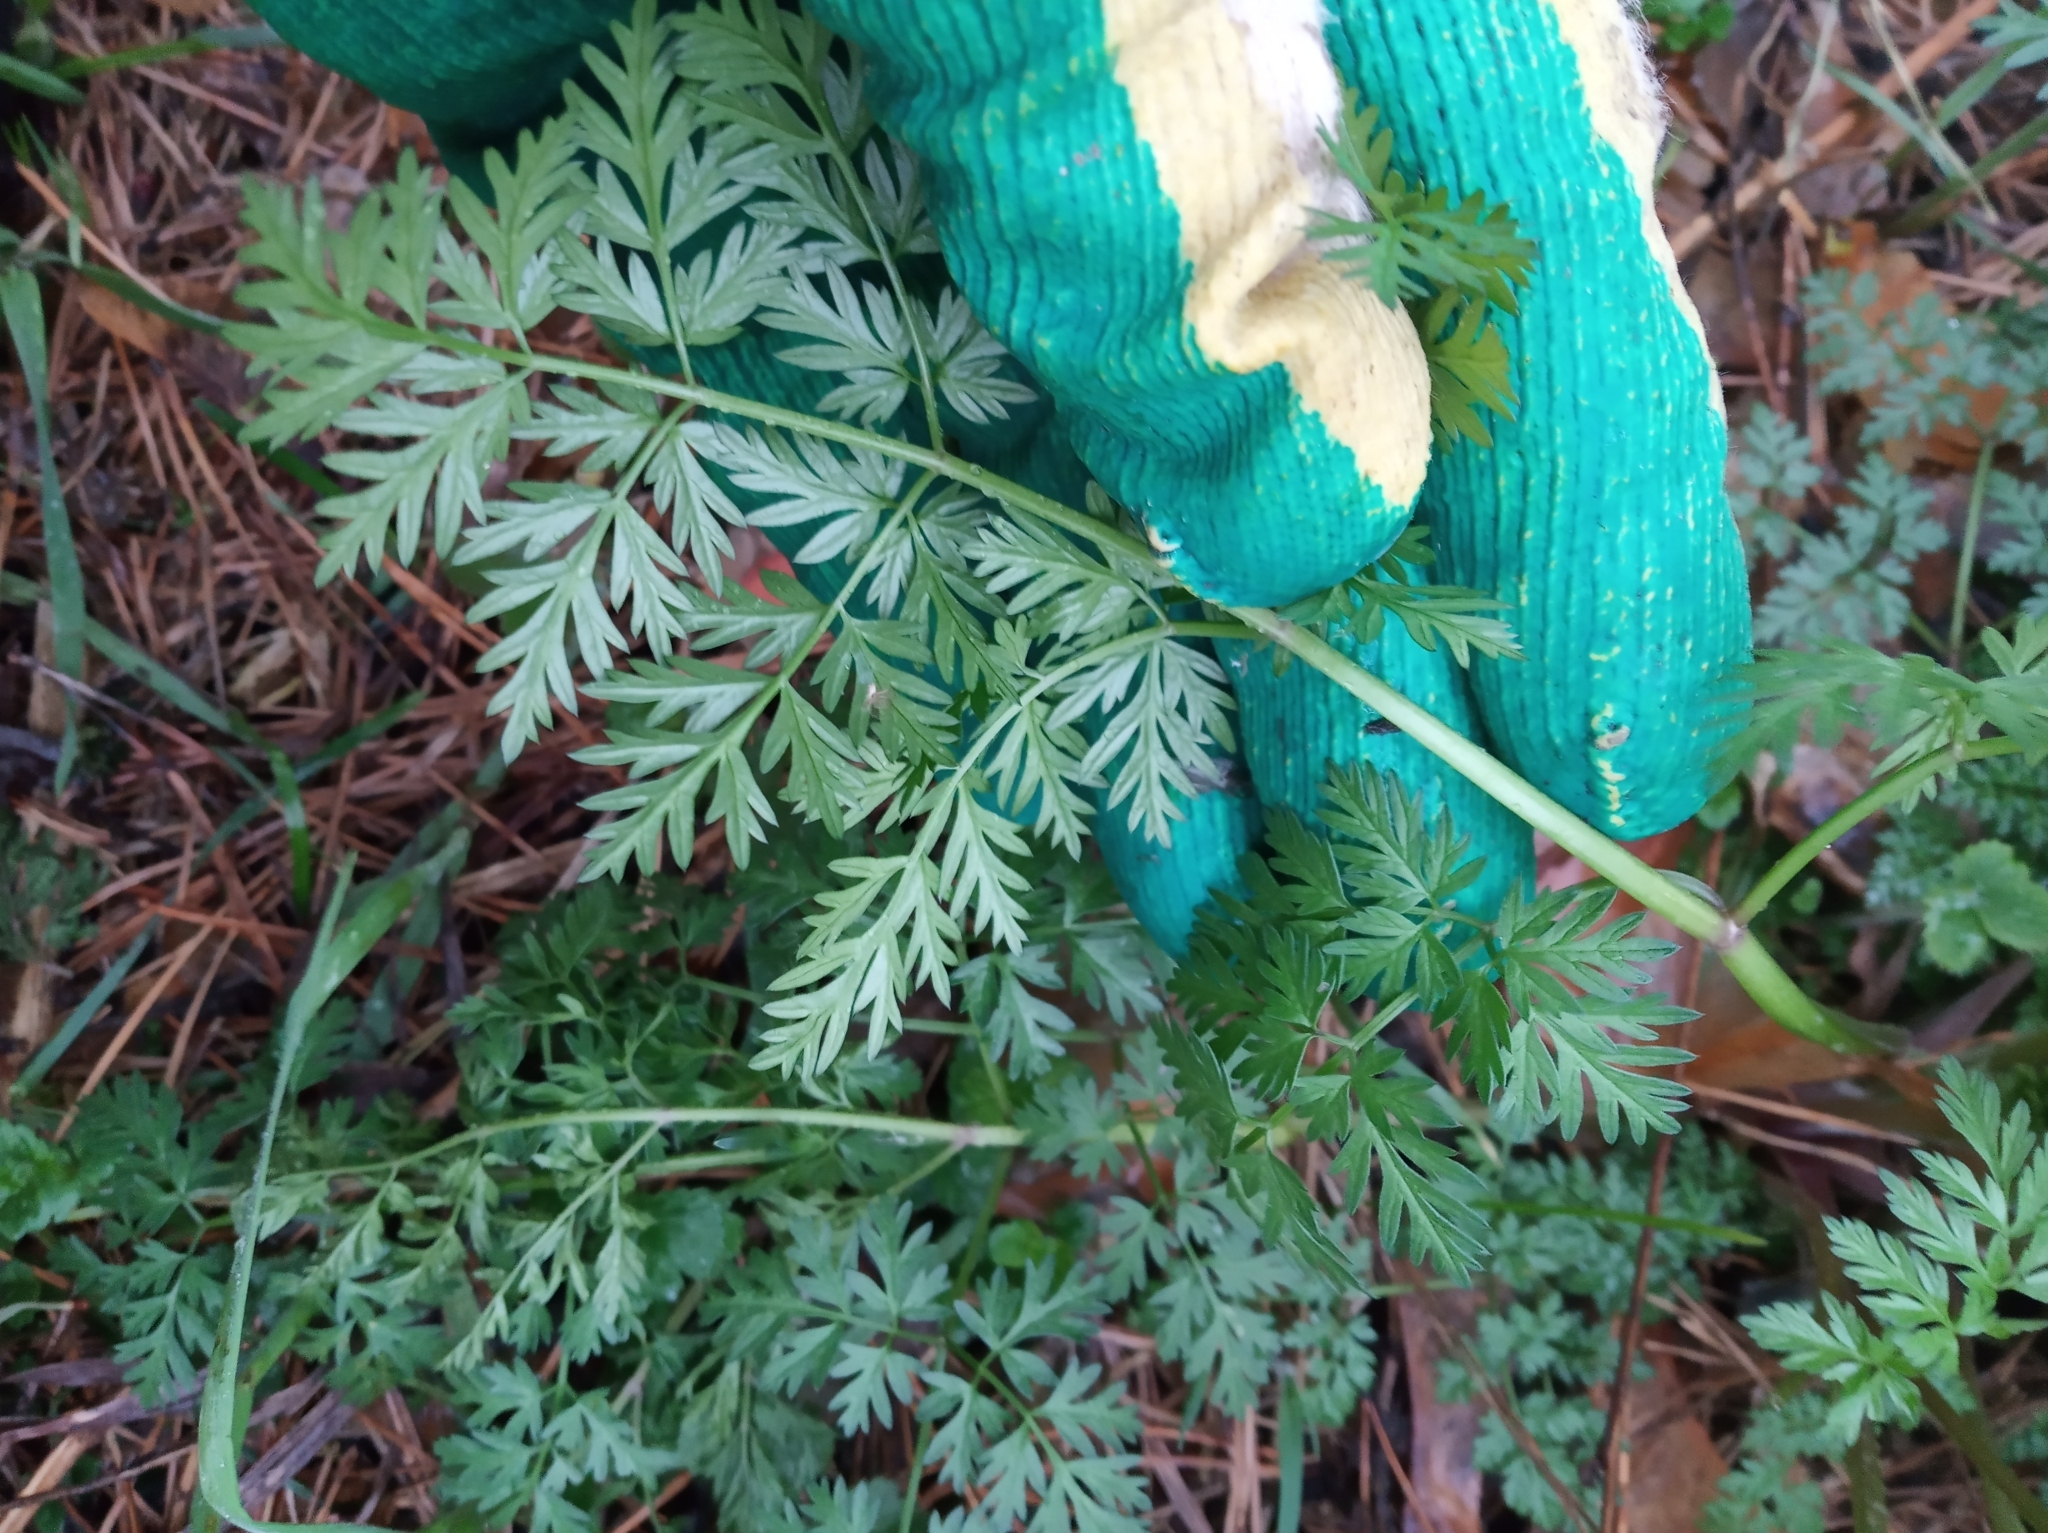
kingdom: Plantae
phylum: Tracheophyta
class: Magnoliopsida
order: Apiales
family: Apiaceae
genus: Anthriscus
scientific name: Anthriscus sylvestris
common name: Cow parsley
